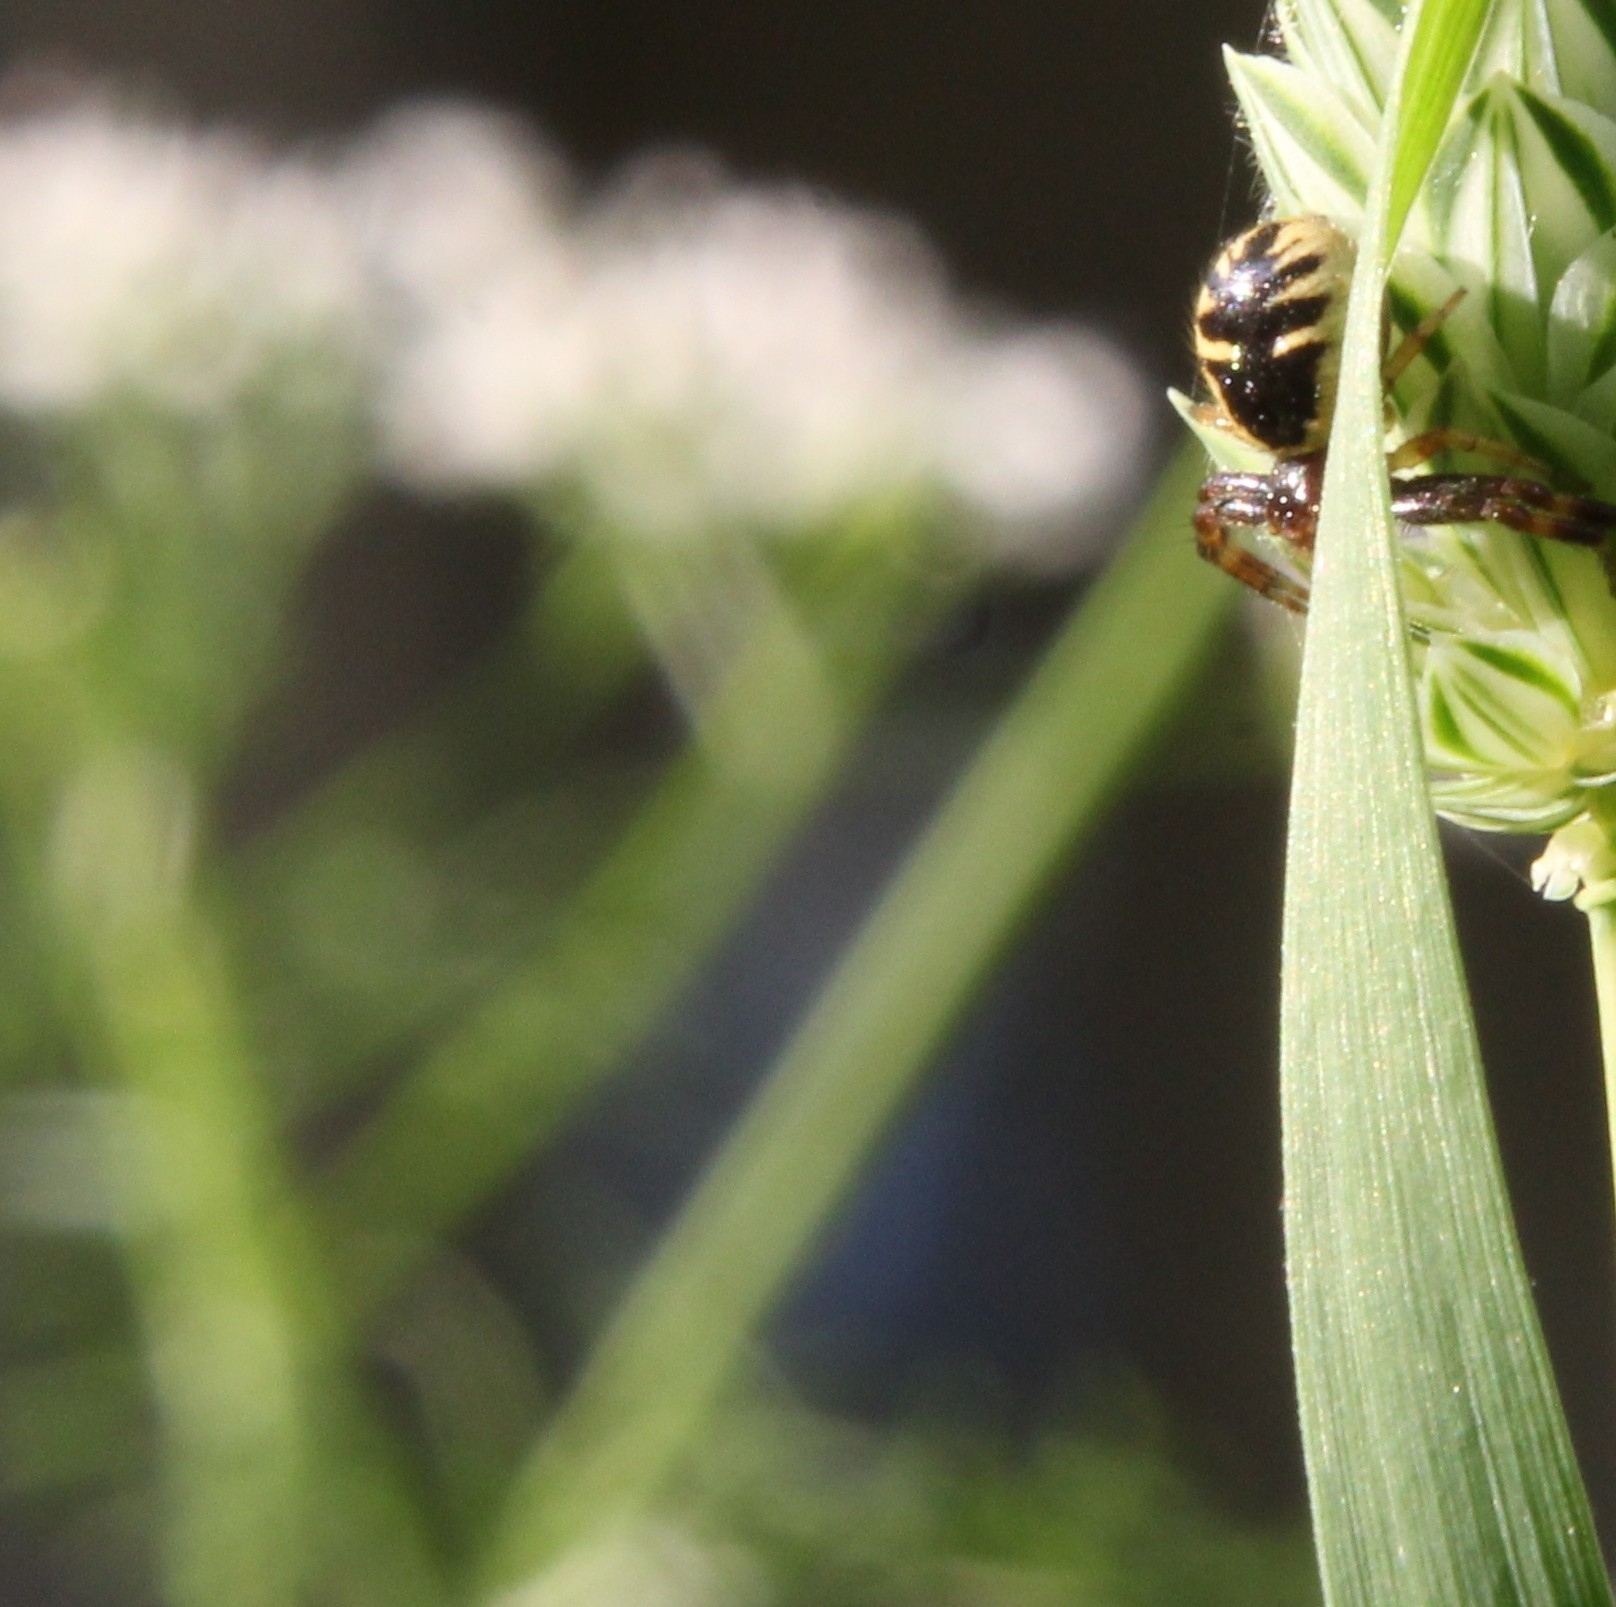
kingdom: Animalia
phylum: Arthropoda
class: Arachnida
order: Araneae
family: Thomisidae
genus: Synema
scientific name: Synema globosum
